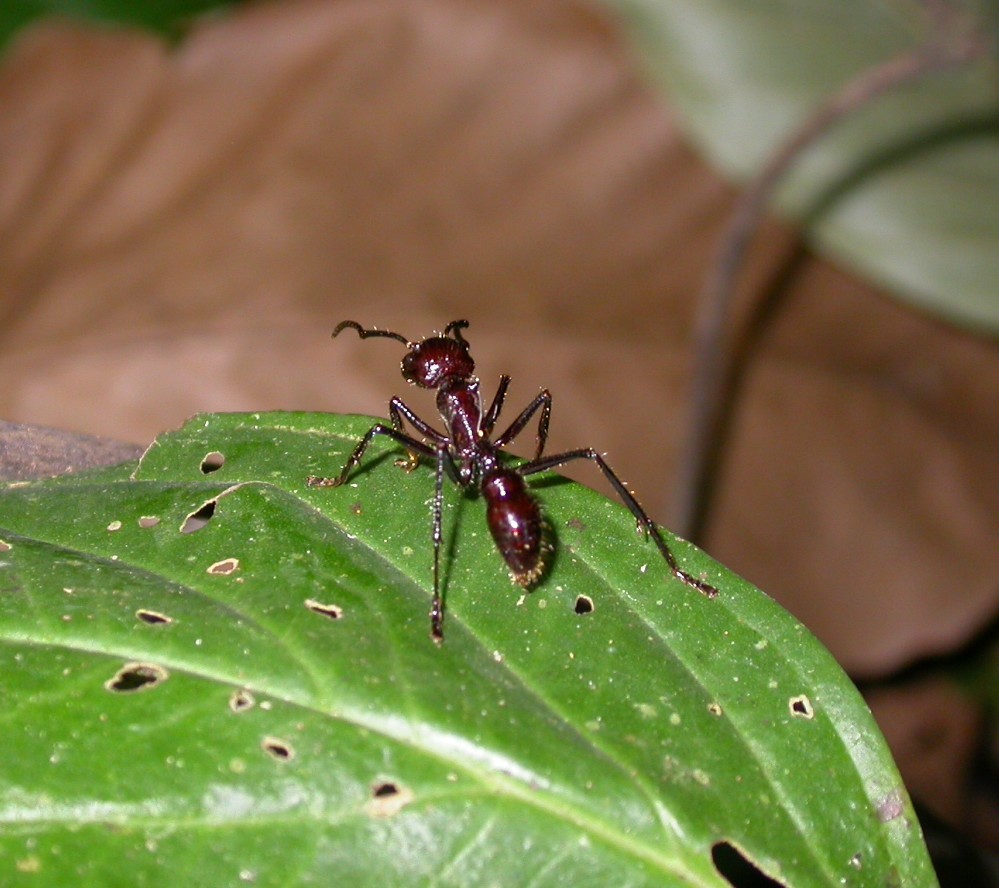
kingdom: Animalia
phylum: Arthropoda
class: Insecta
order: Hymenoptera
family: Formicidae
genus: Paraponera
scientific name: Paraponera clavata
